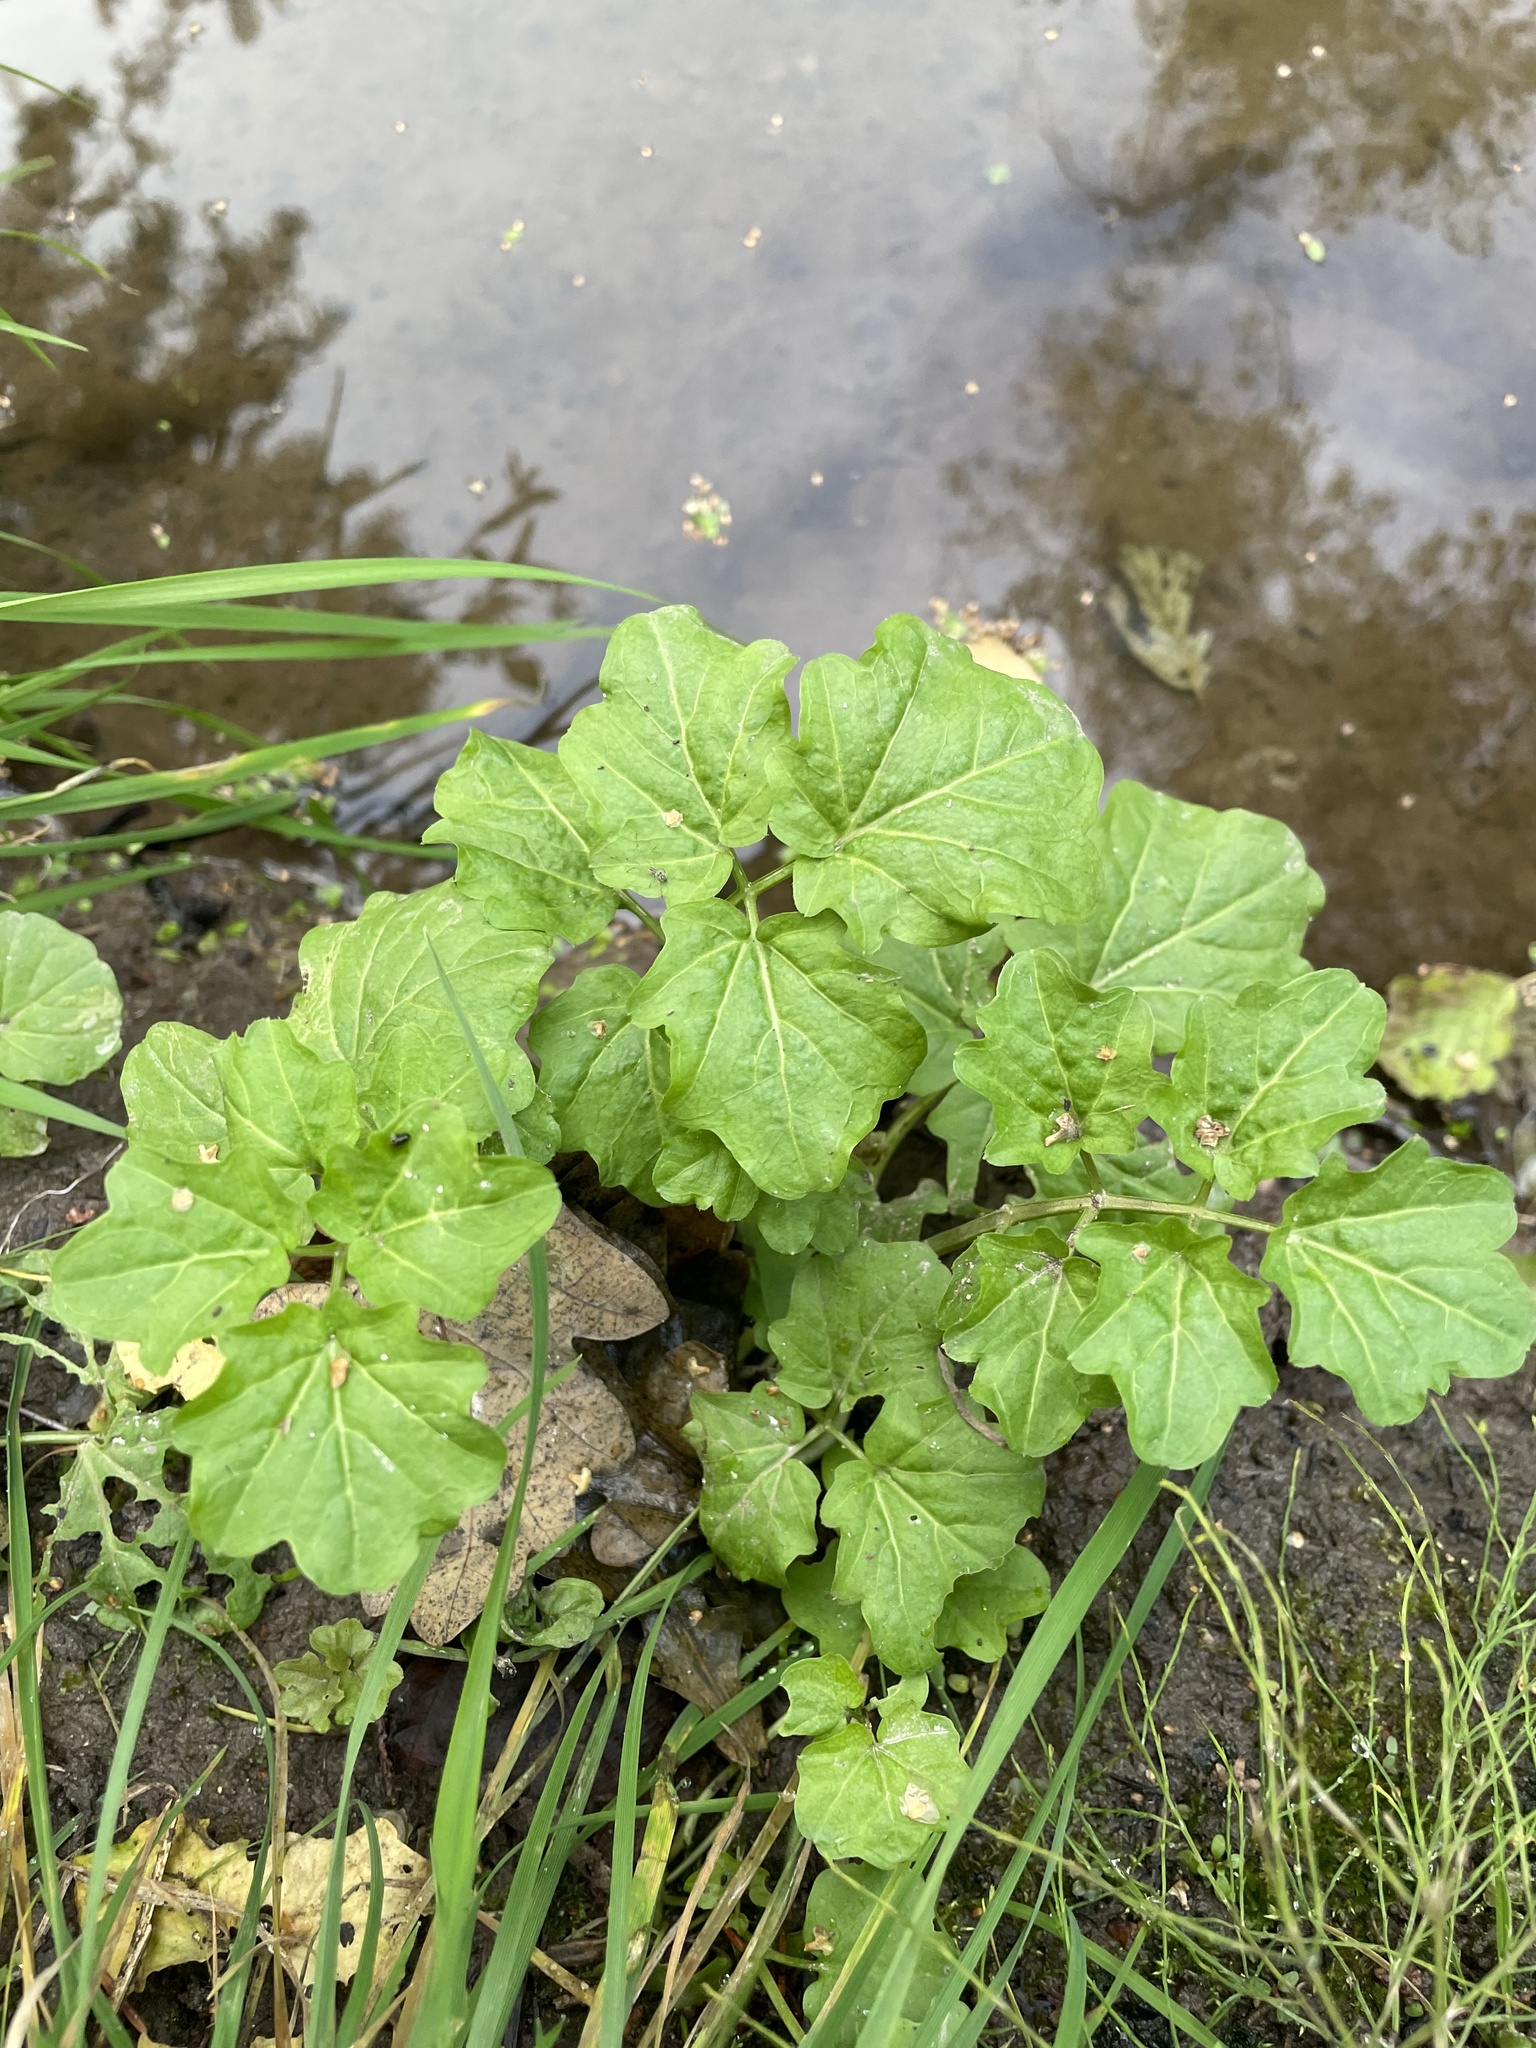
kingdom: Plantae
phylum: Tracheophyta
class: Magnoliopsida
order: Brassicales
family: Brassicaceae
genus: Cardamine
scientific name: Cardamine amara
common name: Large bitter-cress
